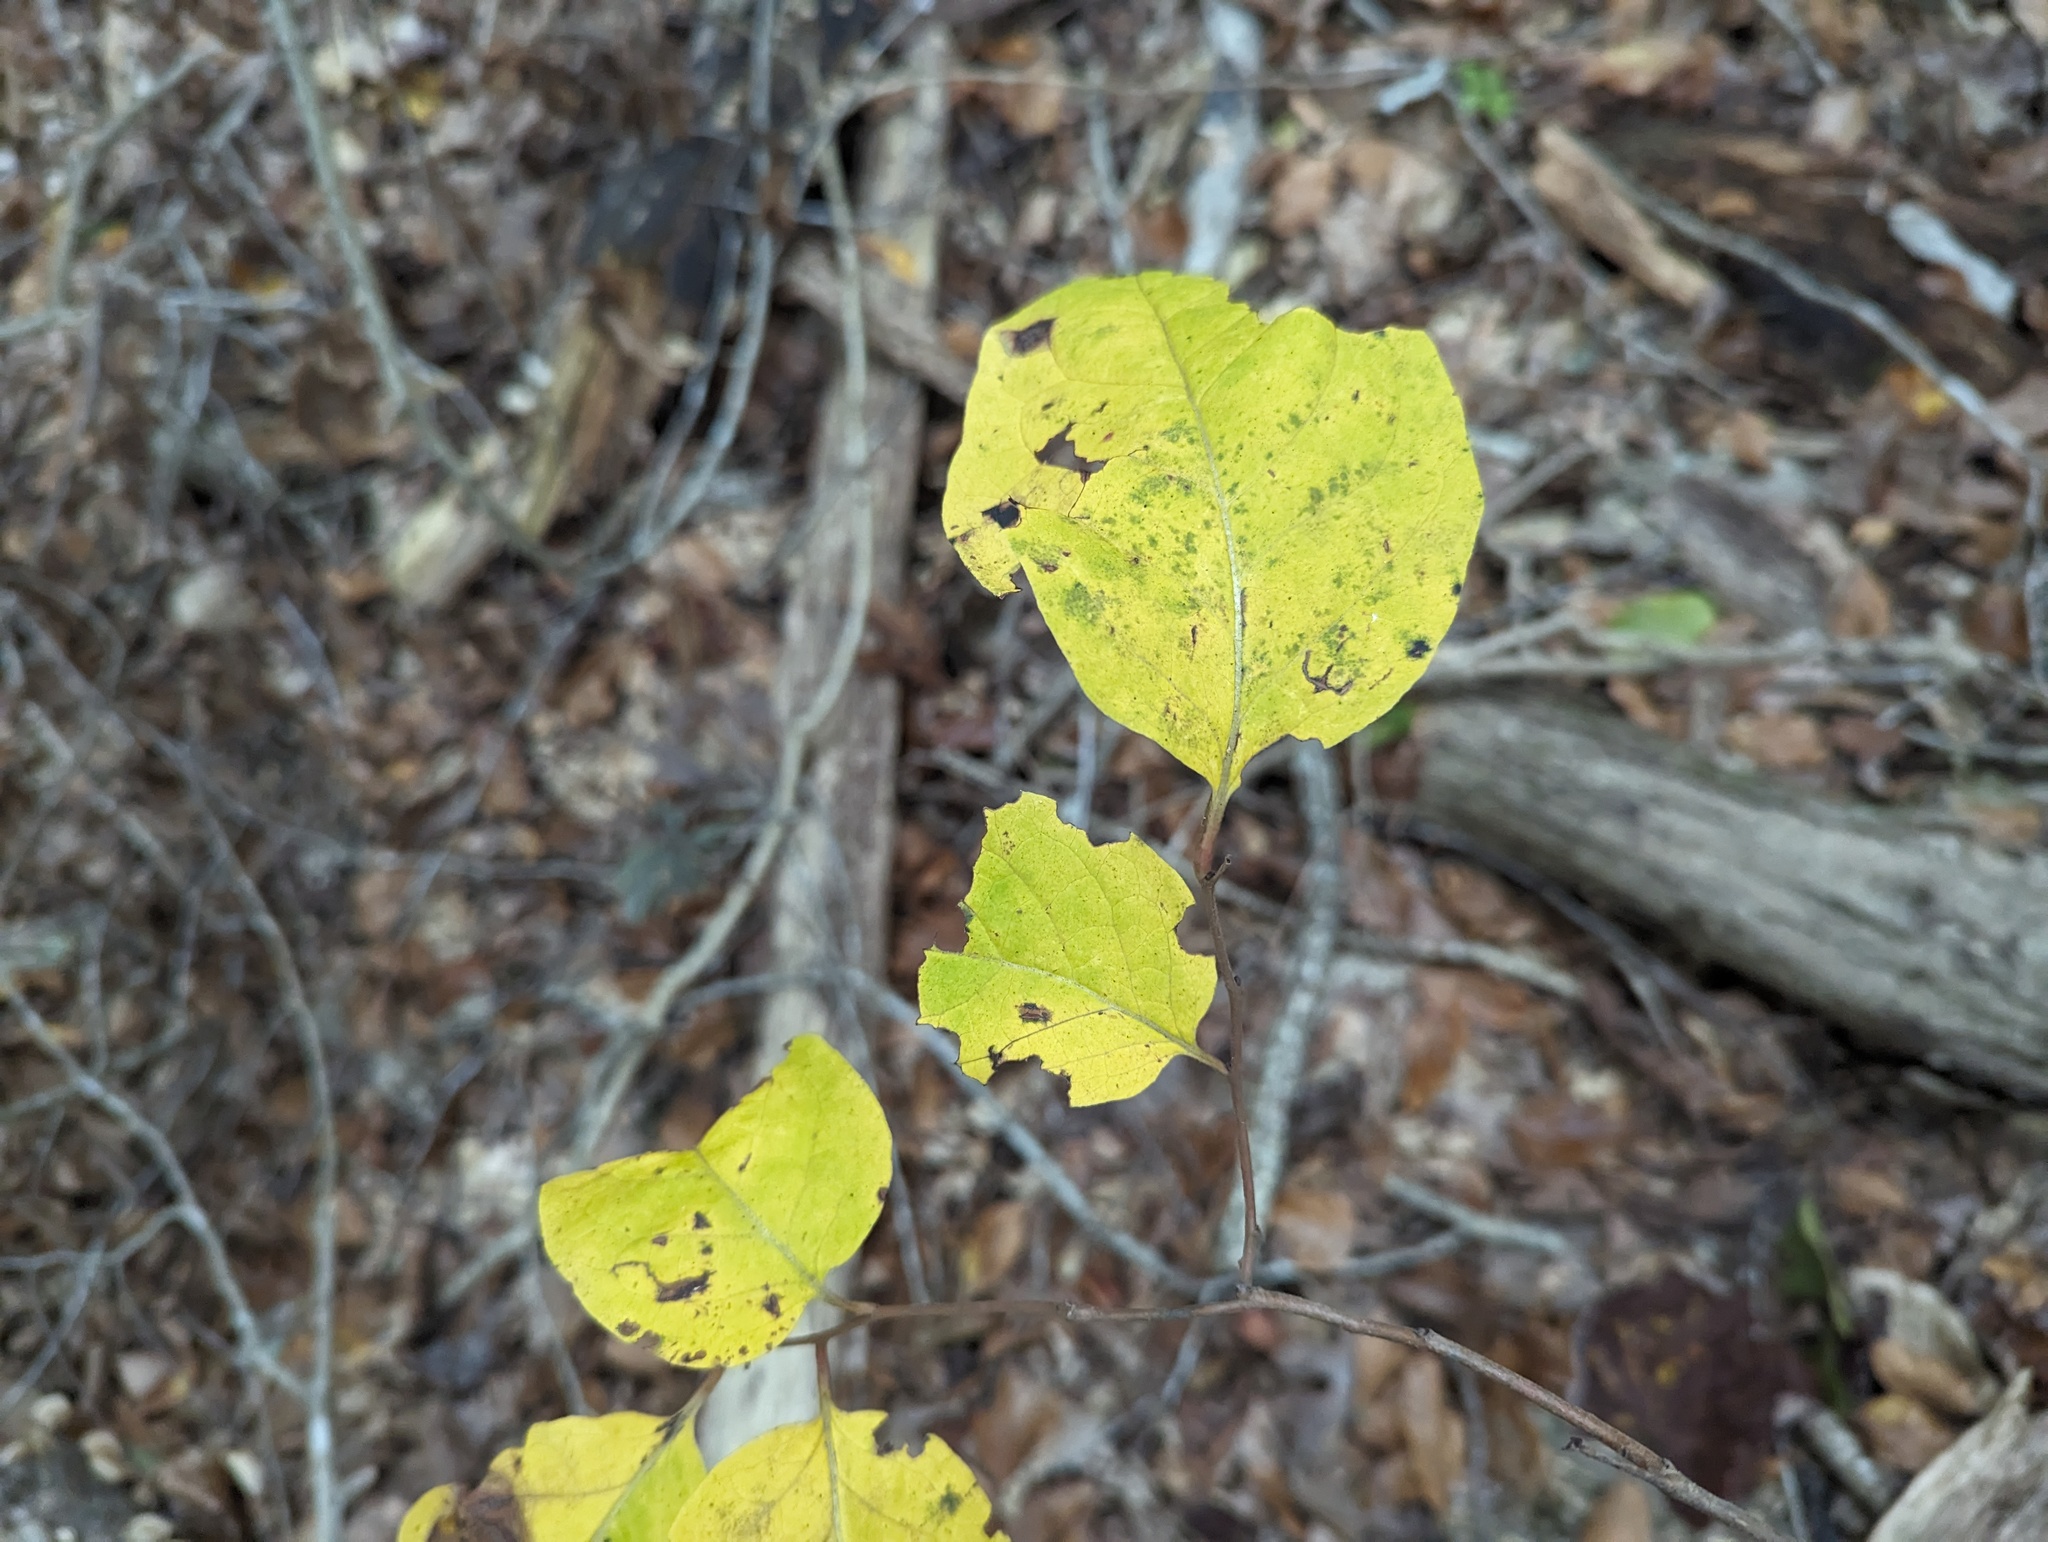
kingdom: Plantae
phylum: Tracheophyta
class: Magnoliopsida
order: Ericales
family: Ebenaceae
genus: Diospyros
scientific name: Diospyros virginiana
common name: Persimmon
